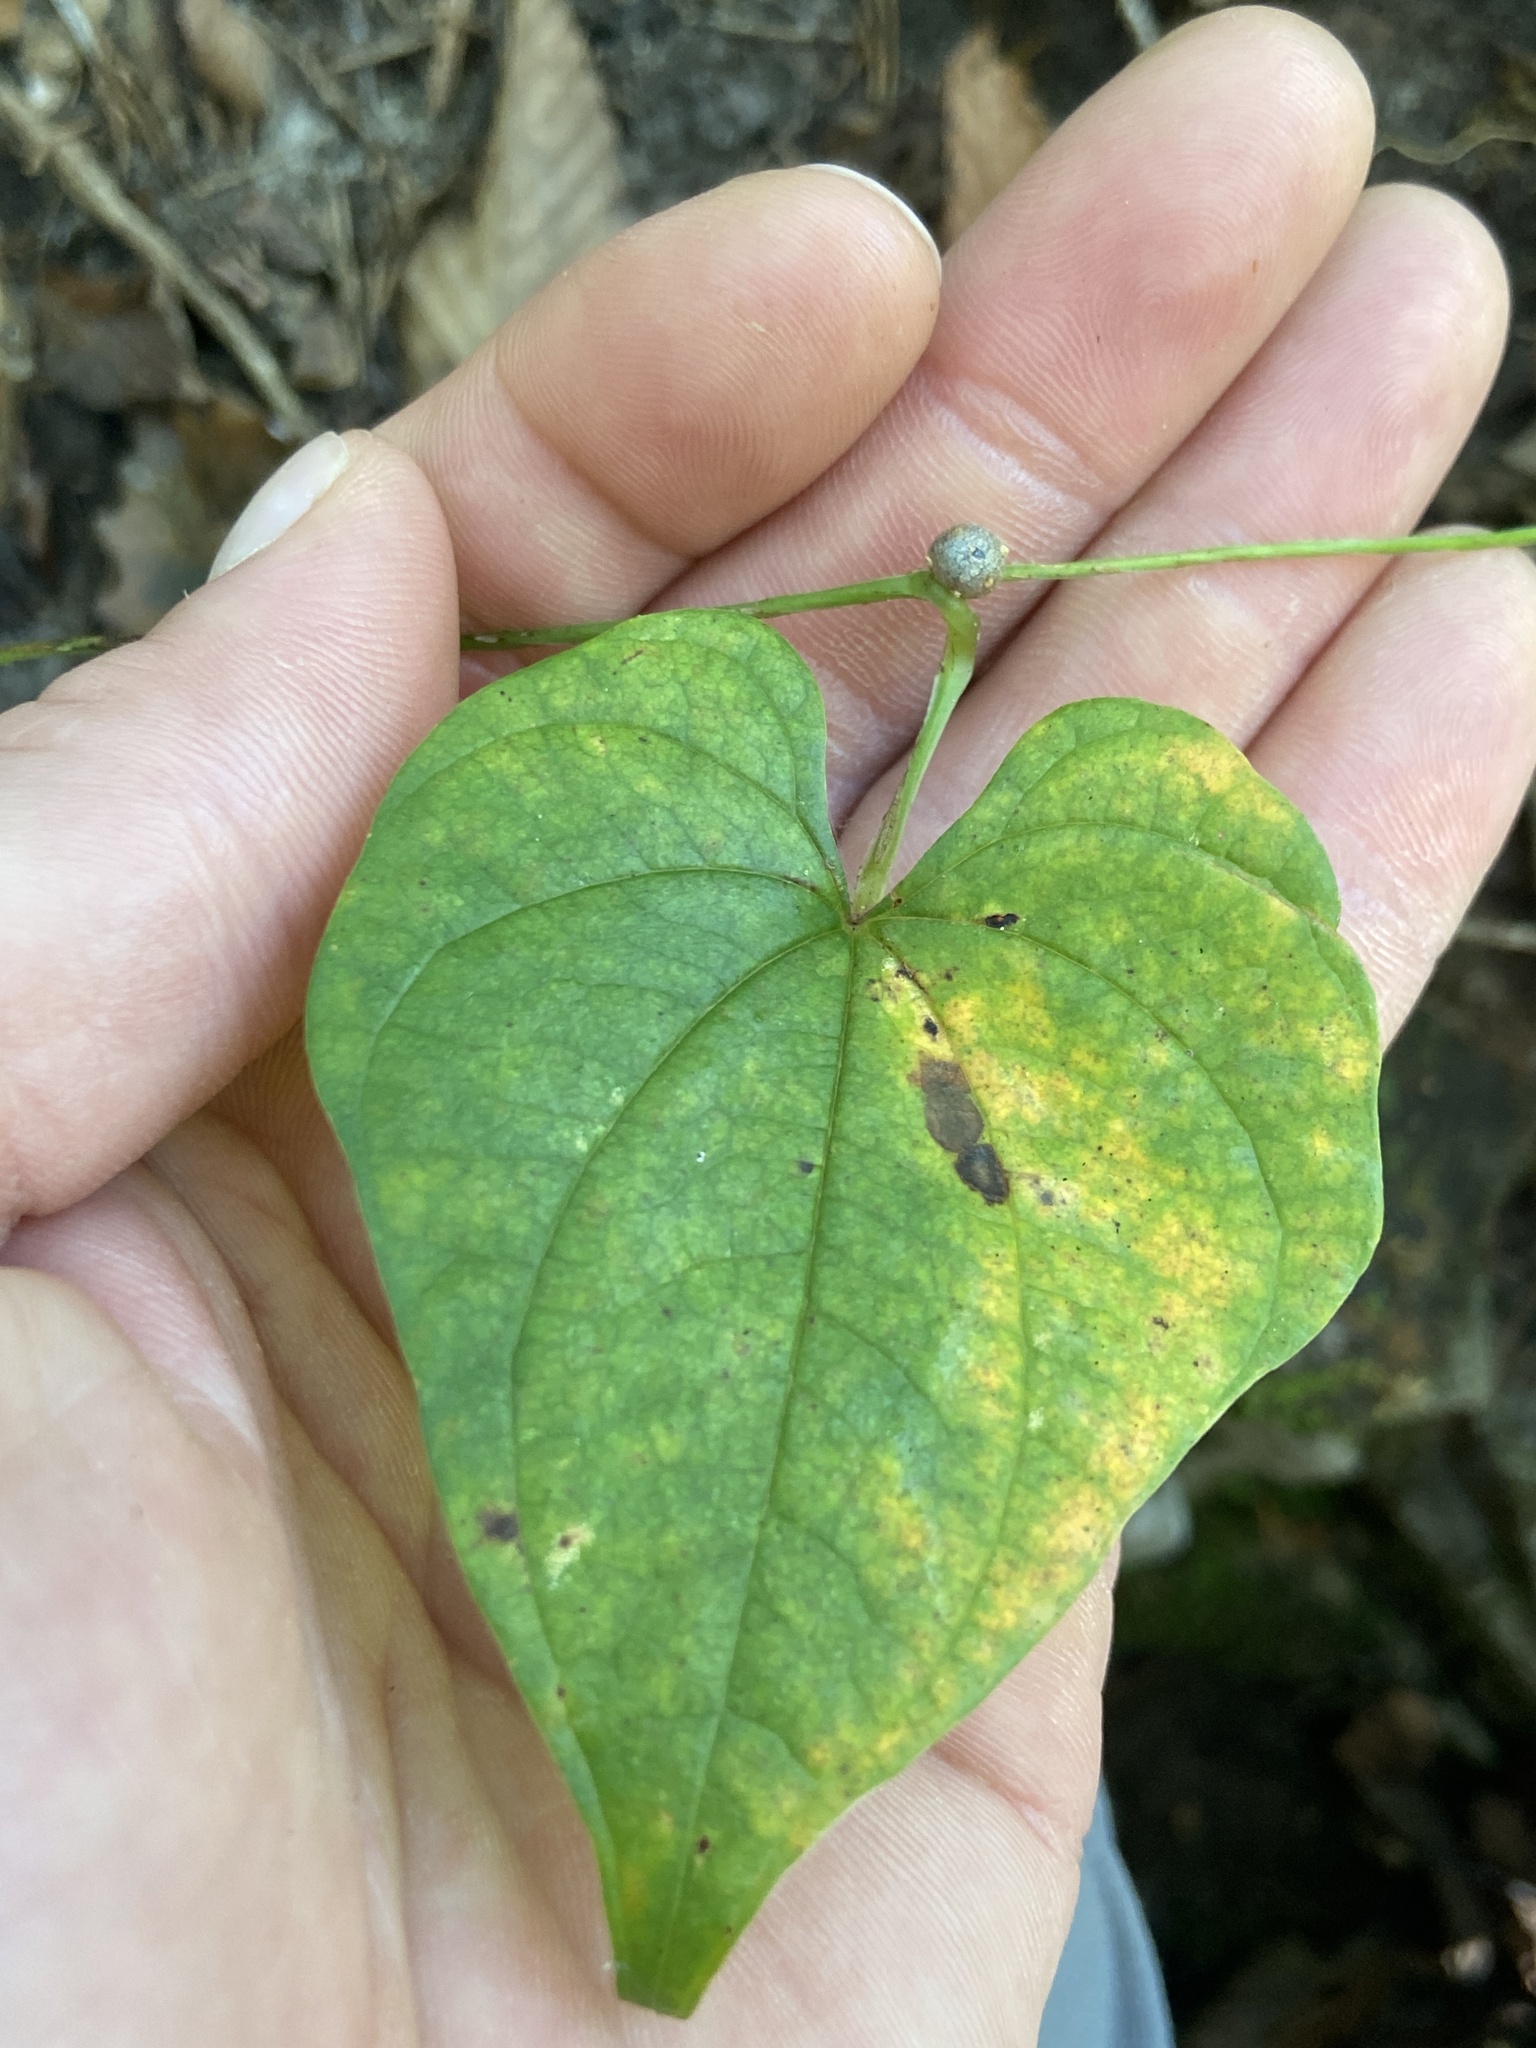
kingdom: Plantae
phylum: Tracheophyta
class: Liliopsida
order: Dioscoreales
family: Dioscoreaceae
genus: Dioscorea
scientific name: Dioscorea polystachya
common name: Chinese yam
